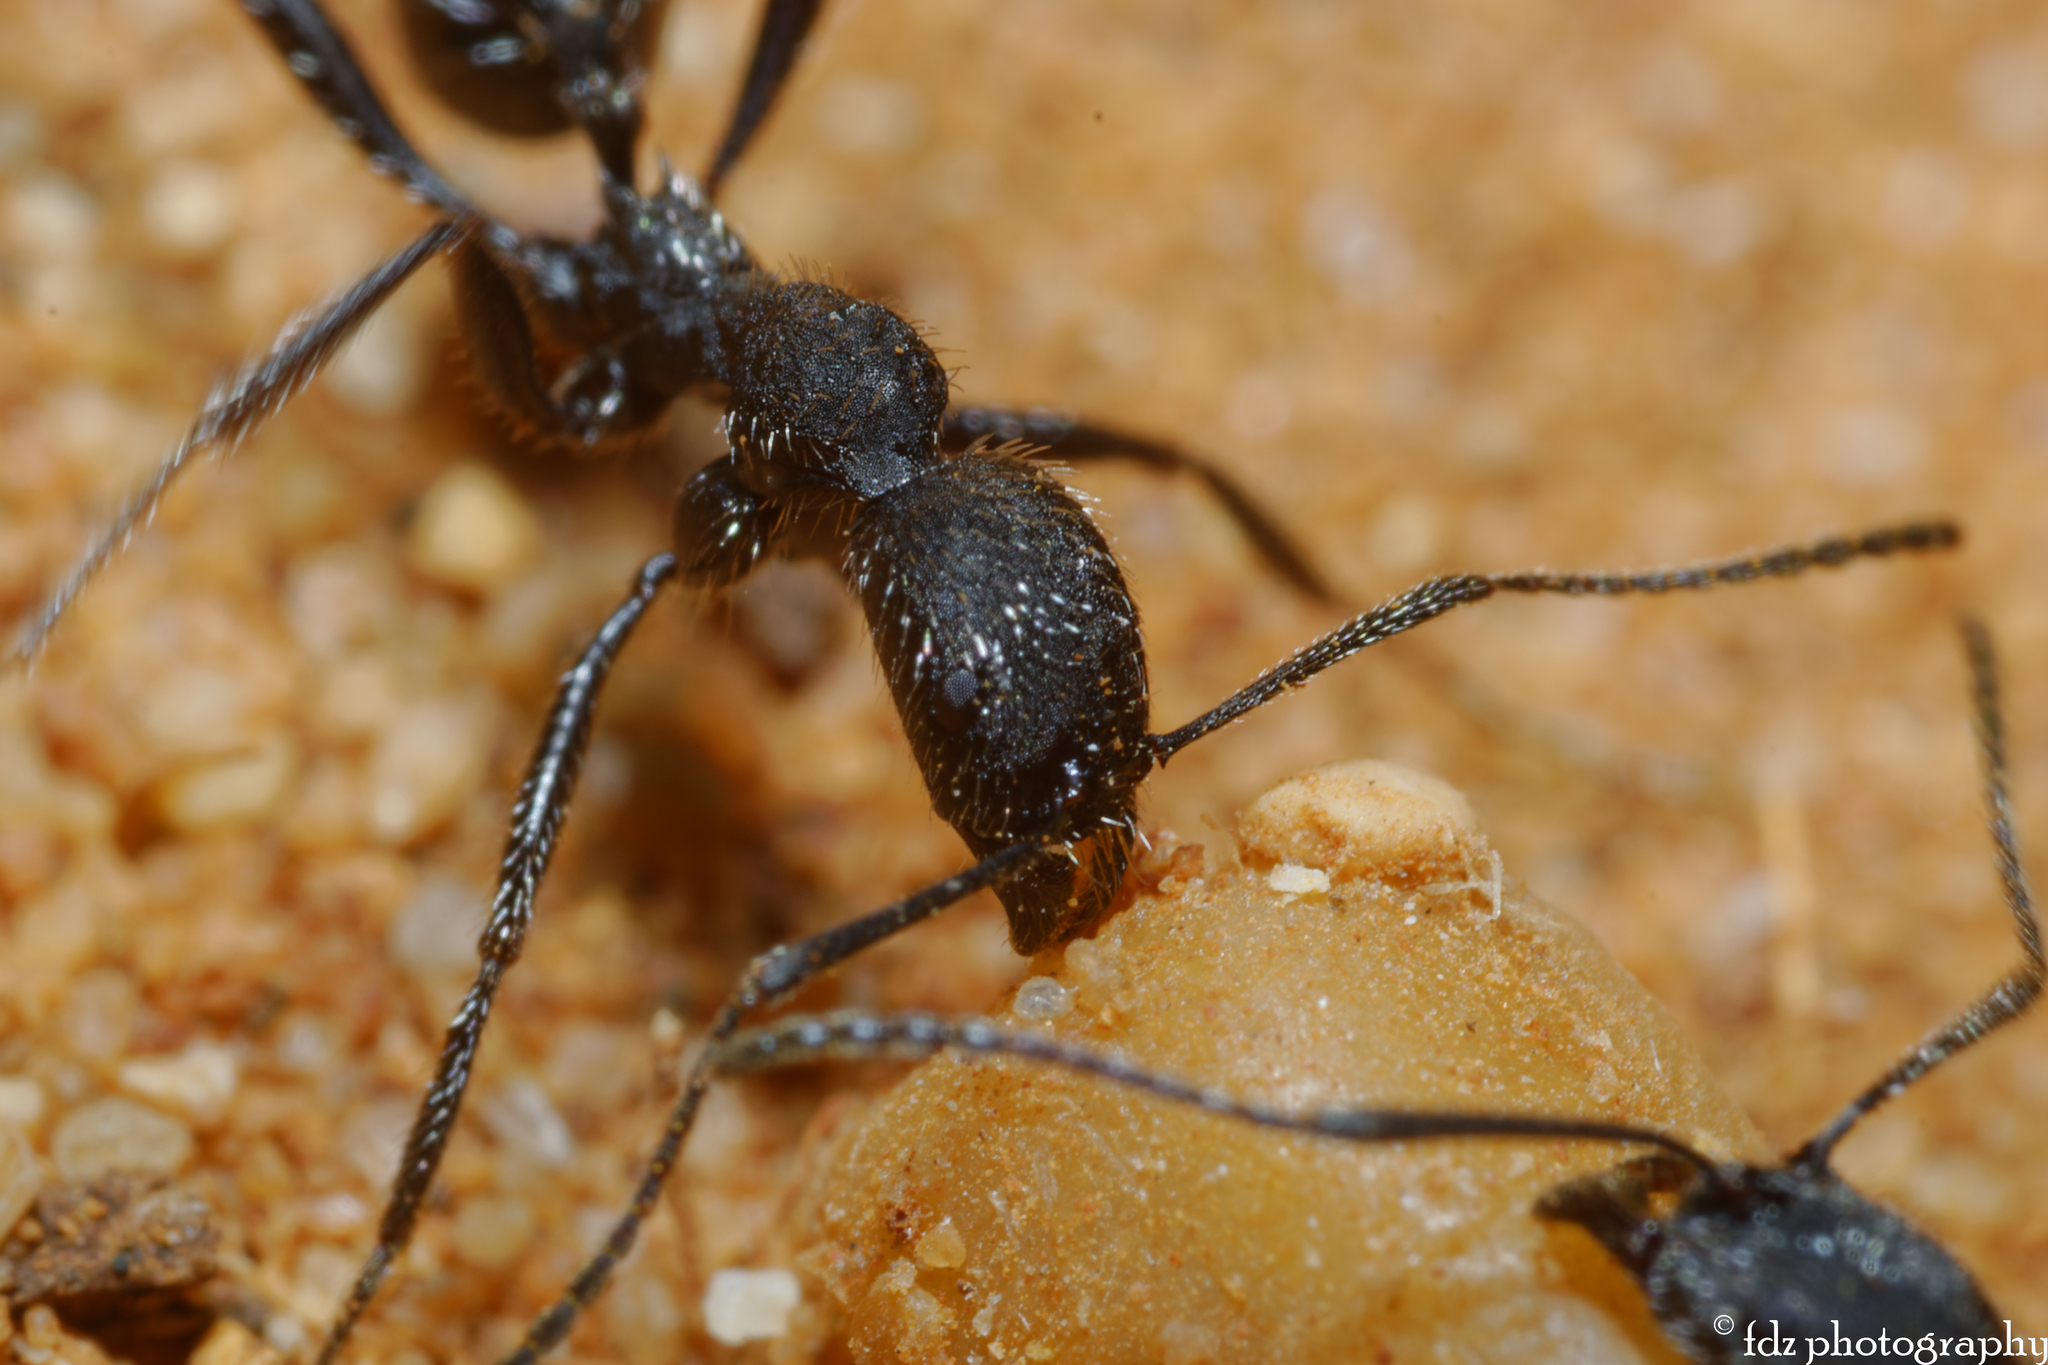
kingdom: Animalia
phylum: Arthropoda
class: Insecta
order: Hymenoptera
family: Formicidae
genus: Aphaenogaster
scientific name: Aphaenogaster senilis
